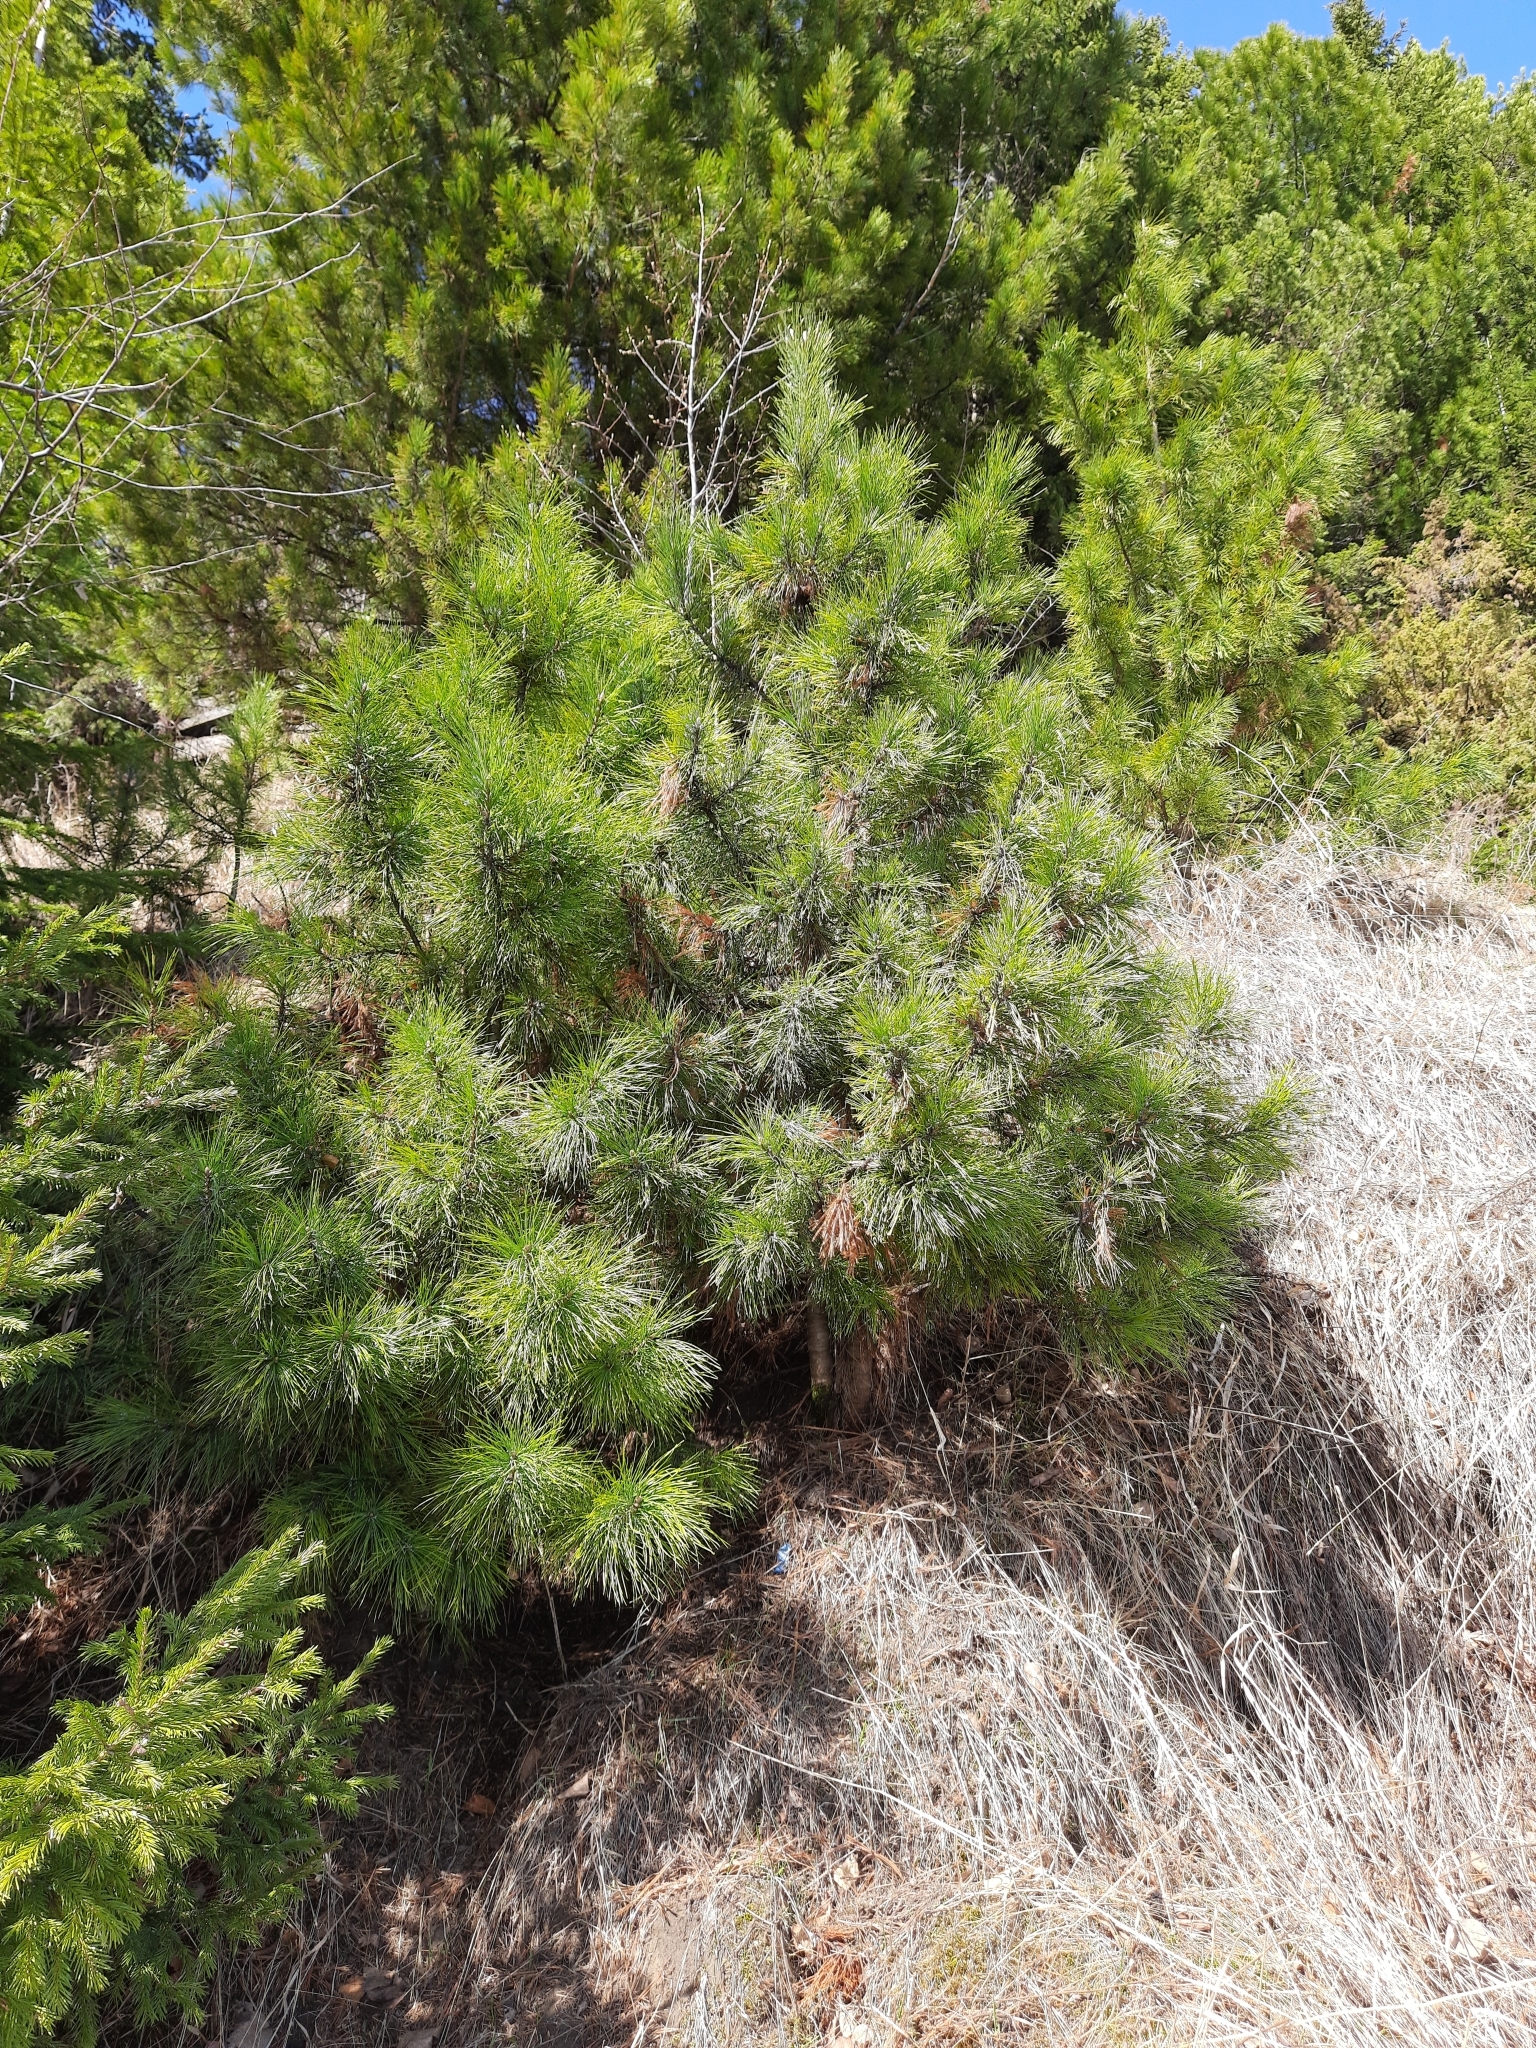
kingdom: Plantae
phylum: Tracheophyta
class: Pinopsida
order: Pinales
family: Pinaceae
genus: Pinus
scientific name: Pinus sibirica
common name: Siberian pine
